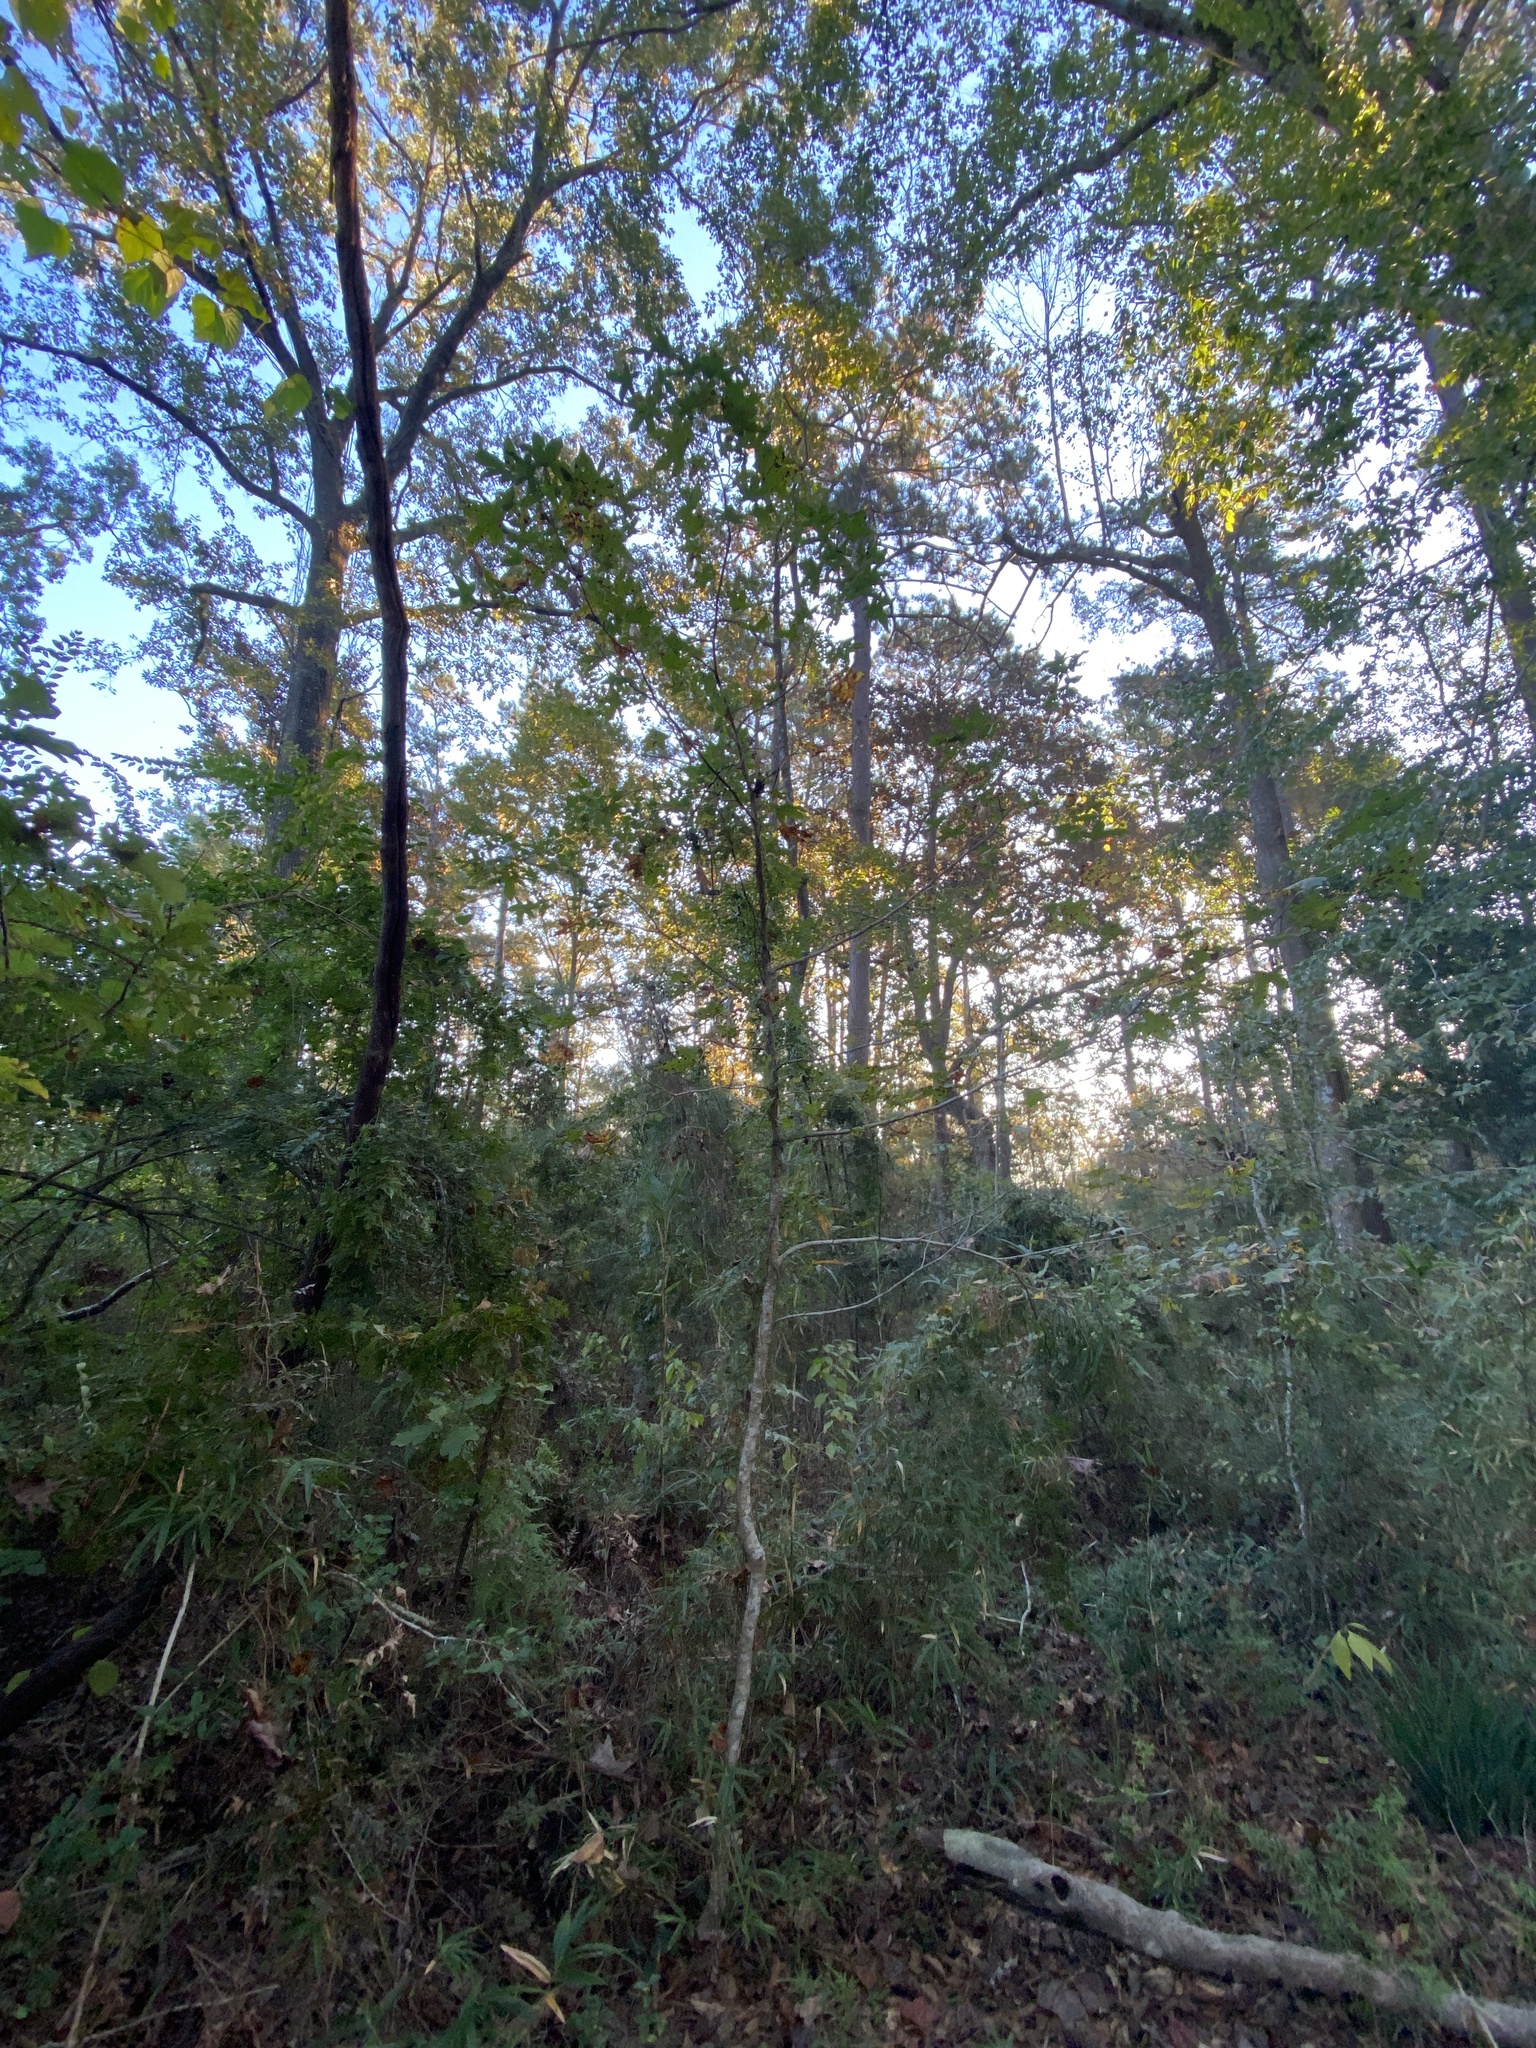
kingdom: Plantae
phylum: Tracheophyta
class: Magnoliopsida
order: Saxifragales
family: Altingiaceae
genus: Liquidambar
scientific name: Liquidambar styraciflua
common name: Sweet gum
